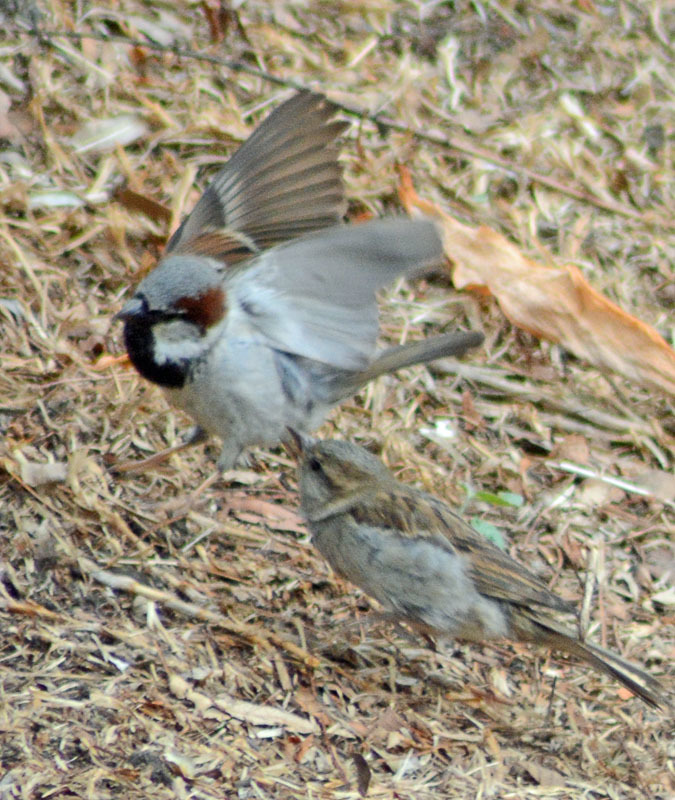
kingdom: Animalia
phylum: Chordata
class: Aves
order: Passeriformes
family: Passeridae
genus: Passer
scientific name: Passer domesticus
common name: House sparrow
